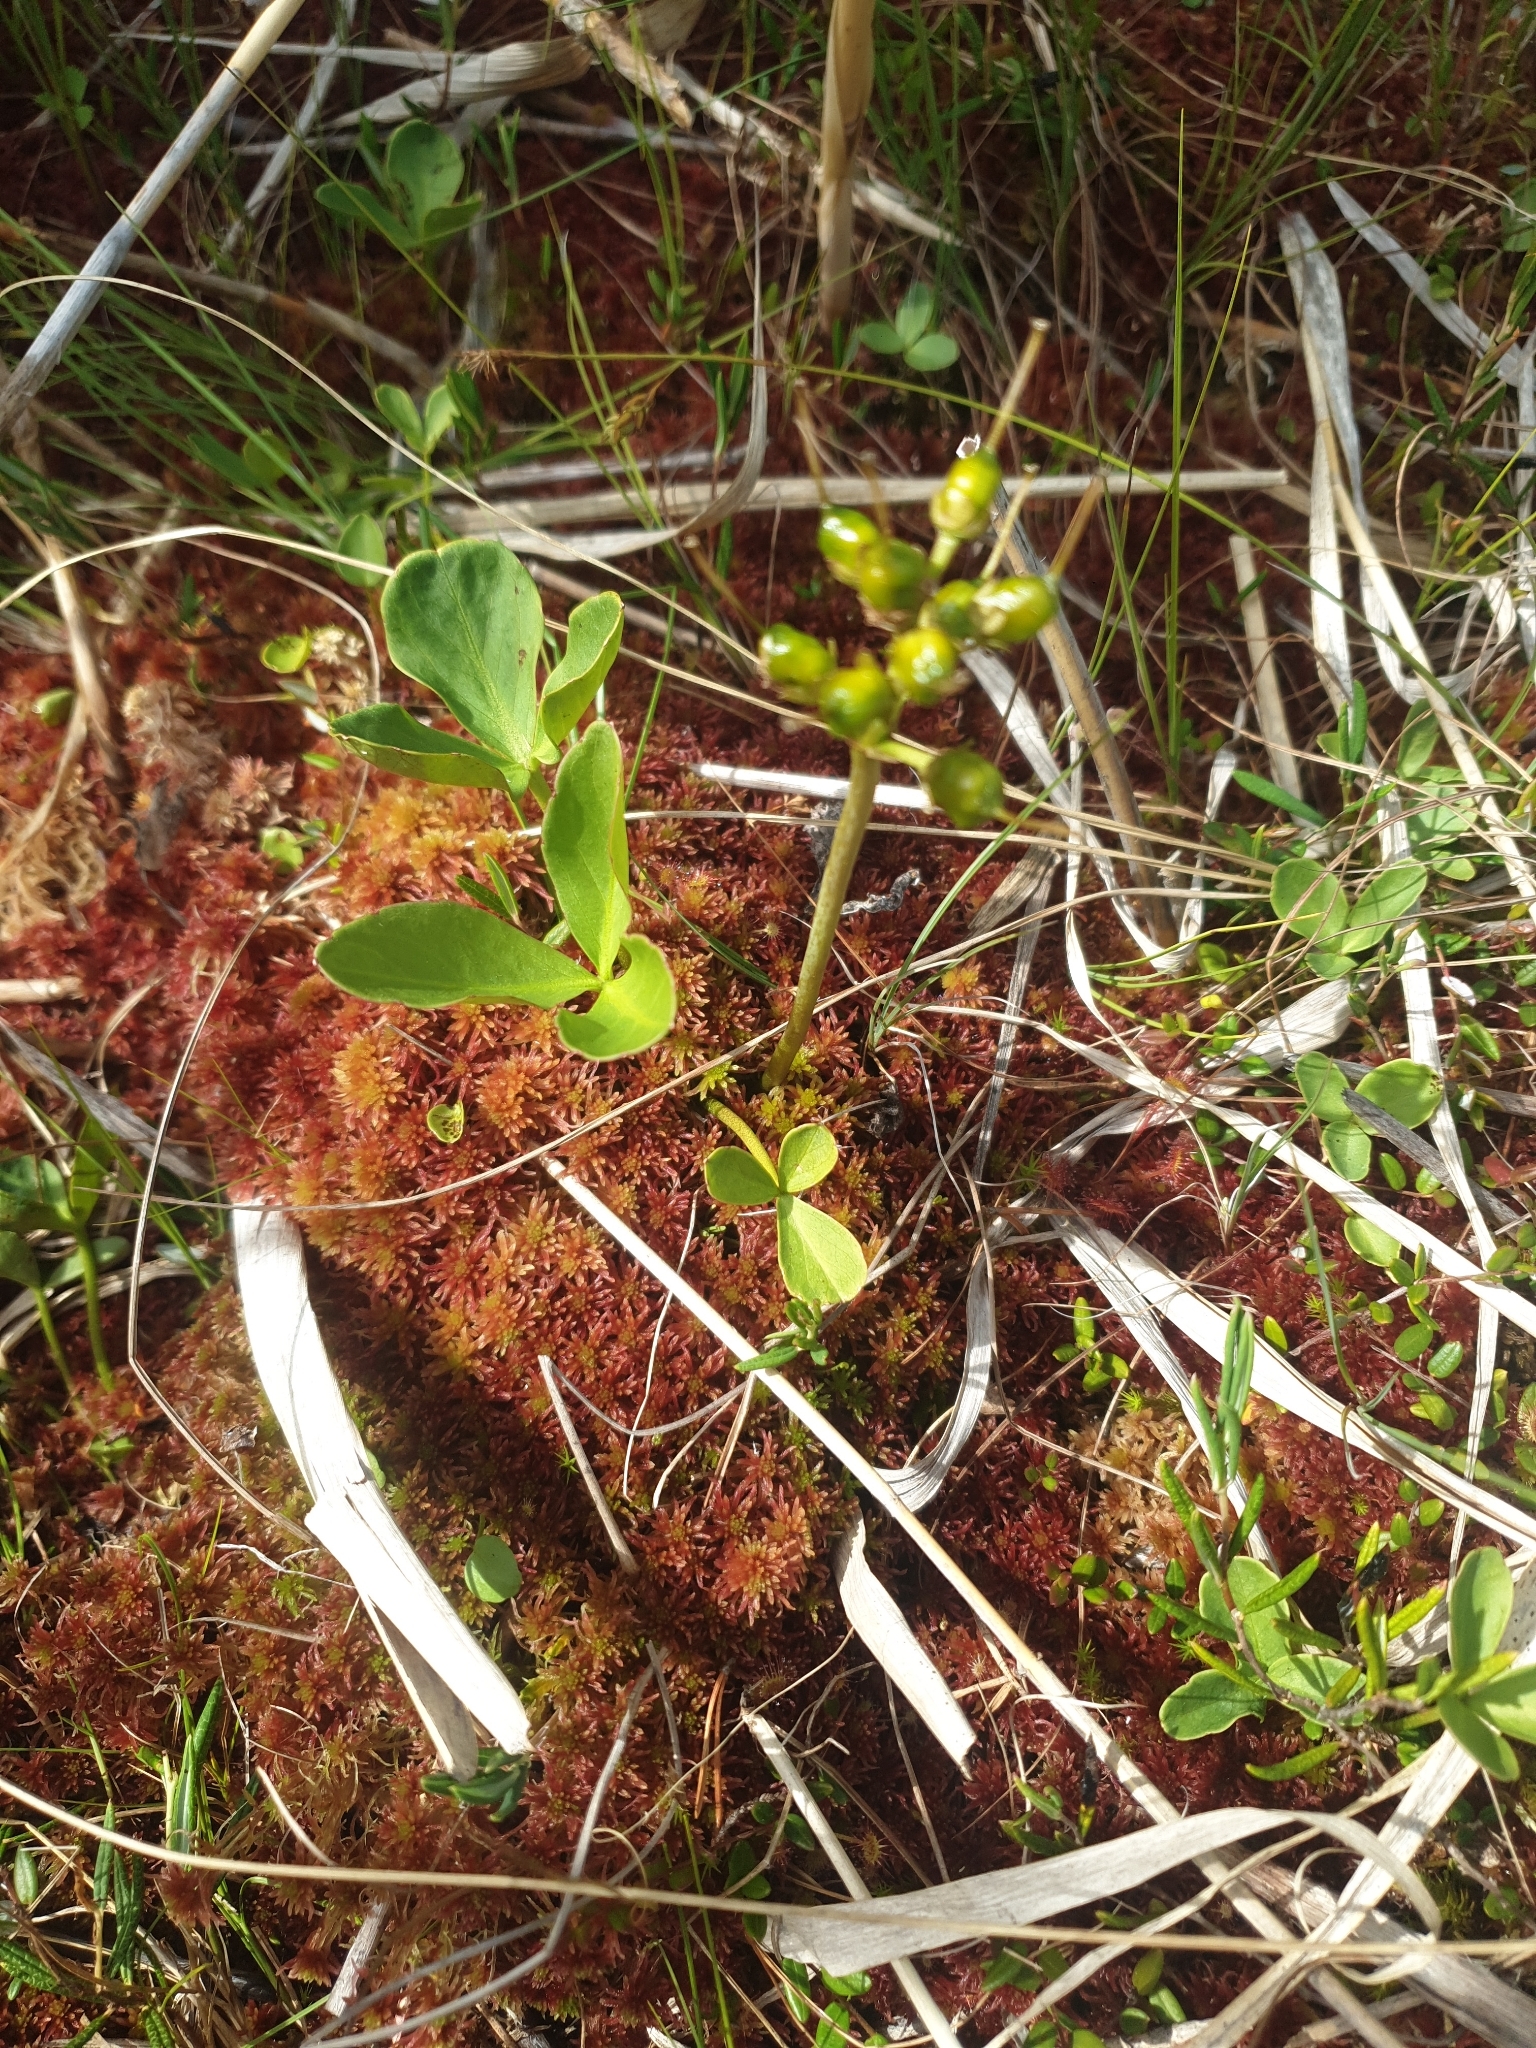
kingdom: Plantae
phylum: Tracheophyta
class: Magnoliopsida
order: Asterales
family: Menyanthaceae
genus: Menyanthes
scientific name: Menyanthes trifoliata
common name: Bogbean
